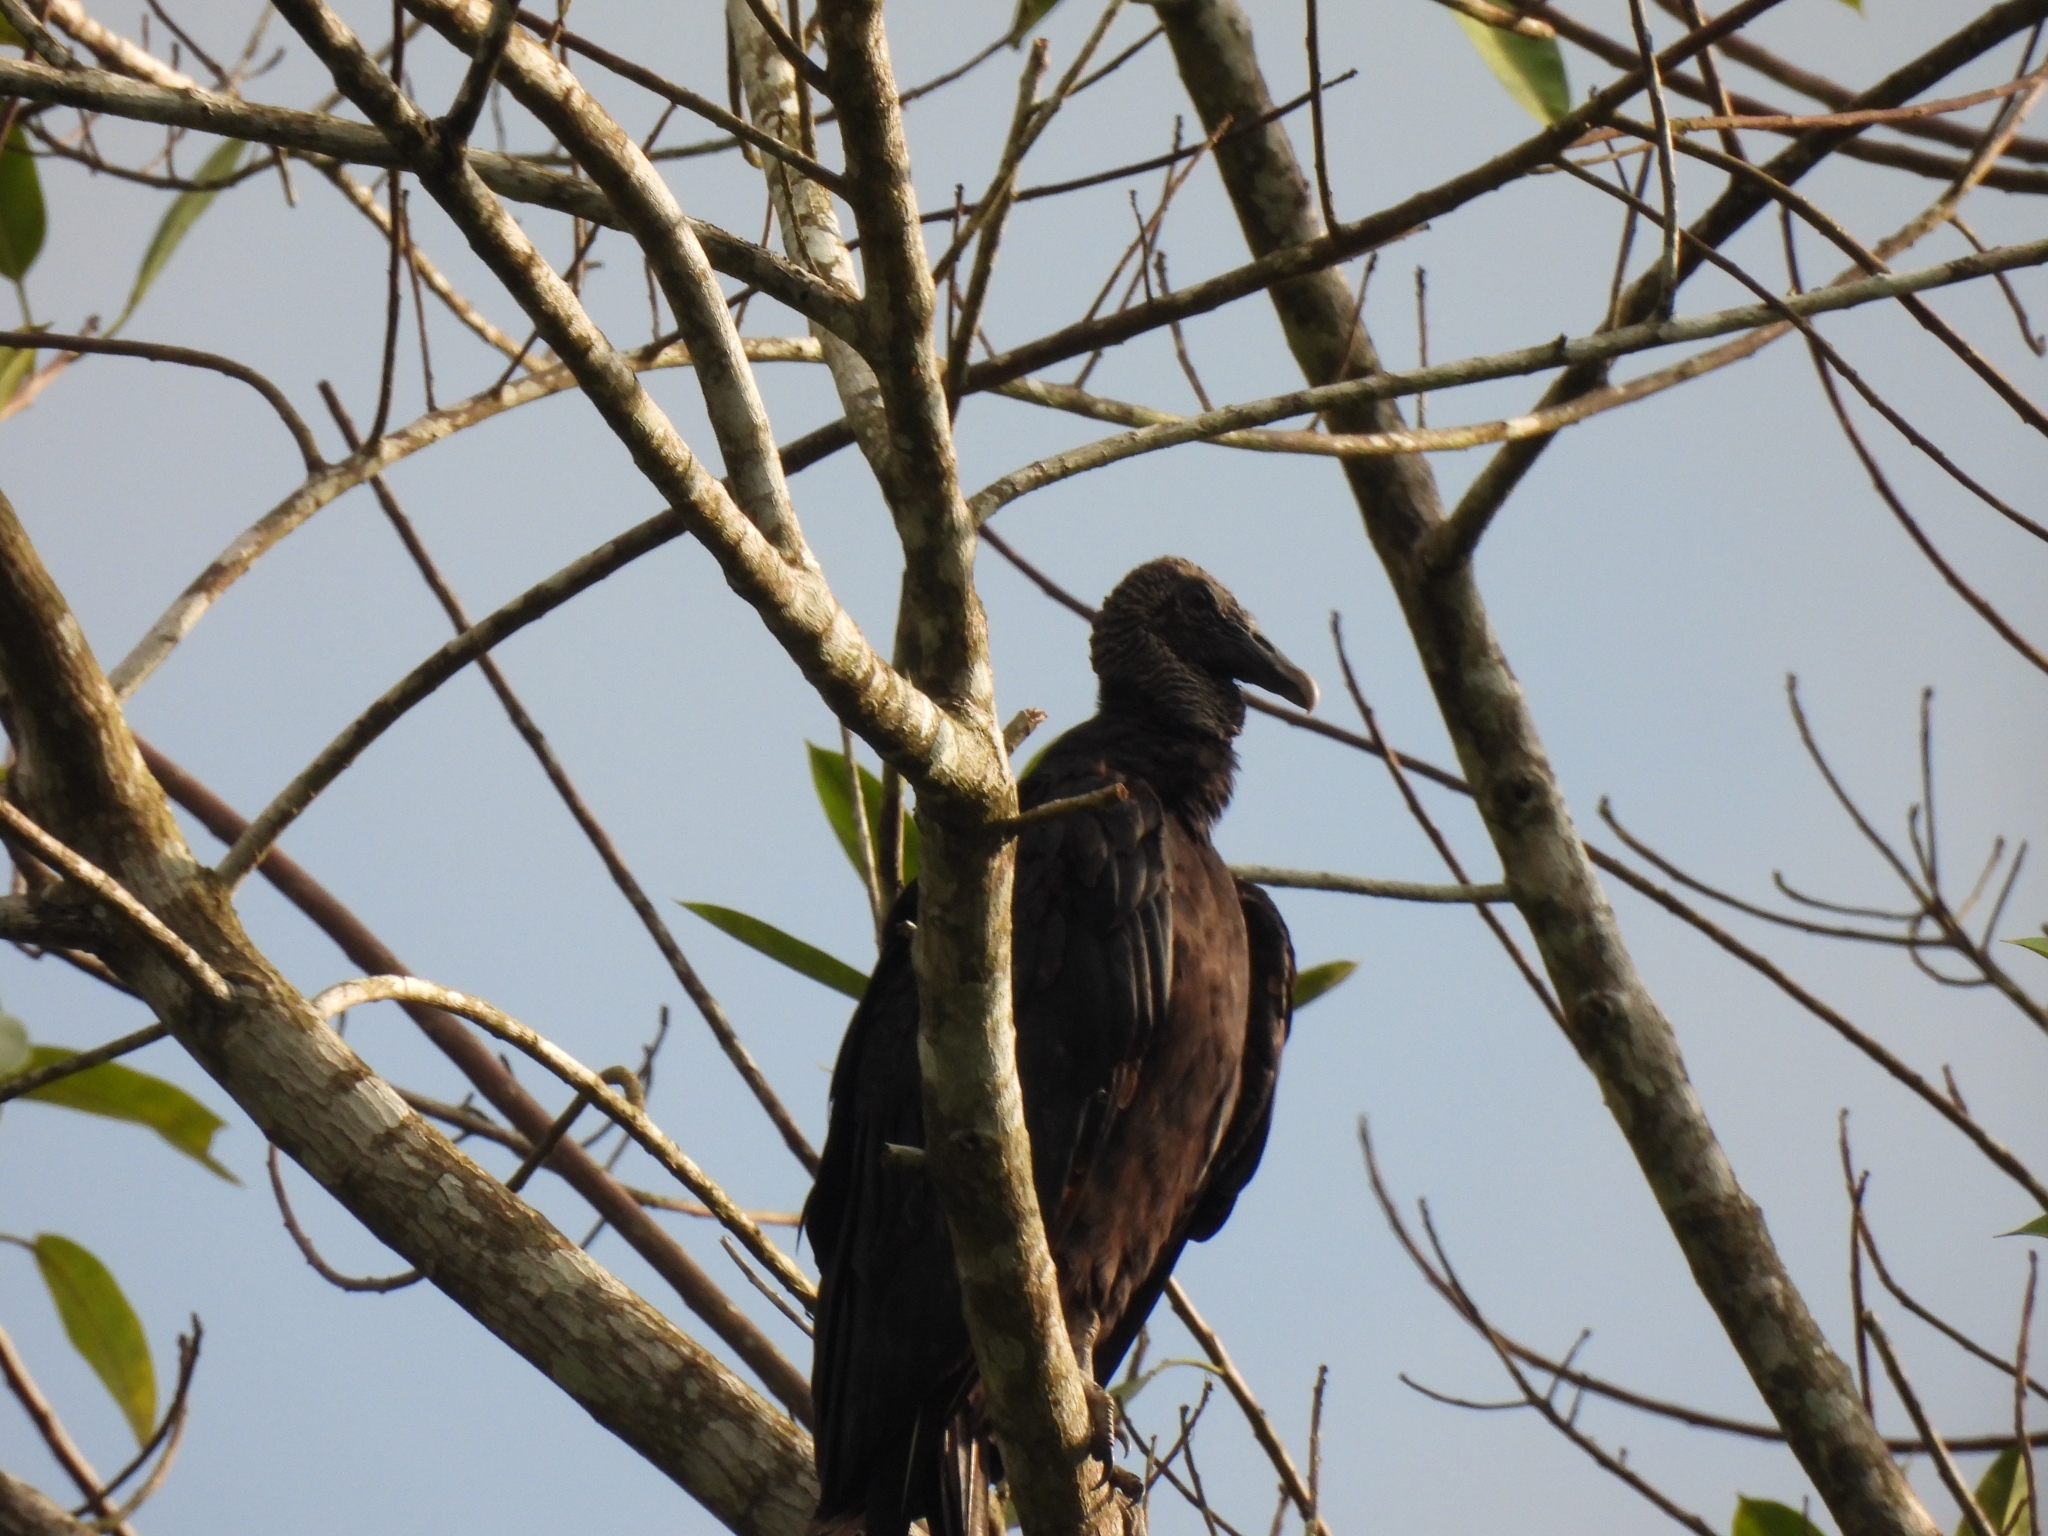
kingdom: Animalia
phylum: Chordata
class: Aves
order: Accipitriformes
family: Cathartidae
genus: Coragyps
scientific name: Coragyps atratus
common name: Black vulture
